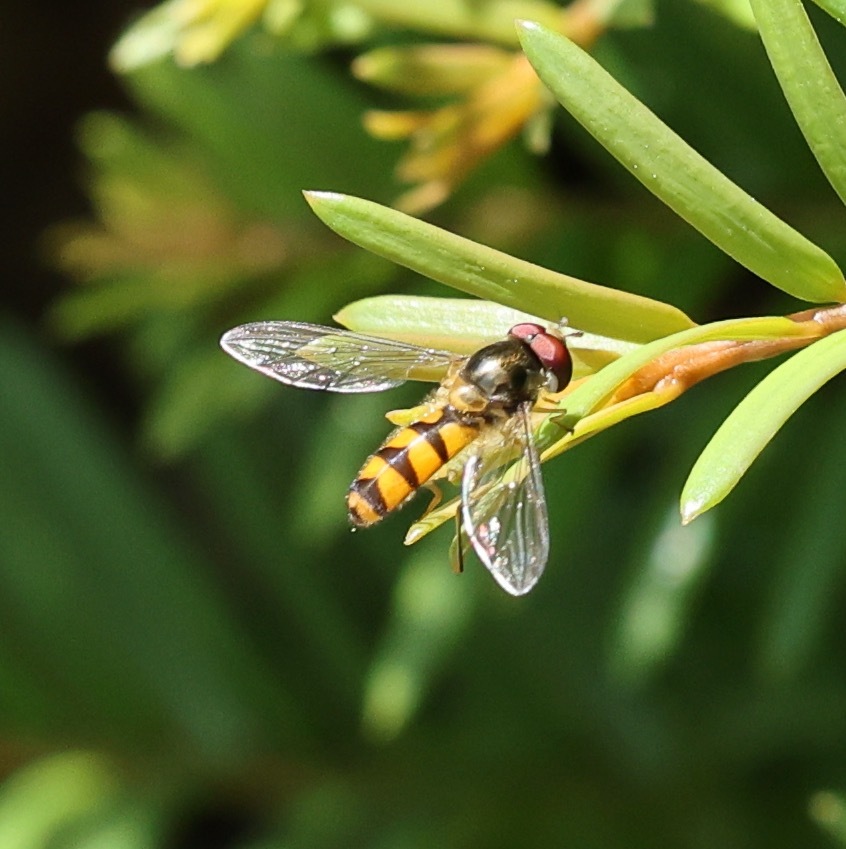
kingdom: Animalia
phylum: Arthropoda
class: Insecta
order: Diptera
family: Syrphidae
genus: Meliscaeva
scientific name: Meliscaeva auricollis
